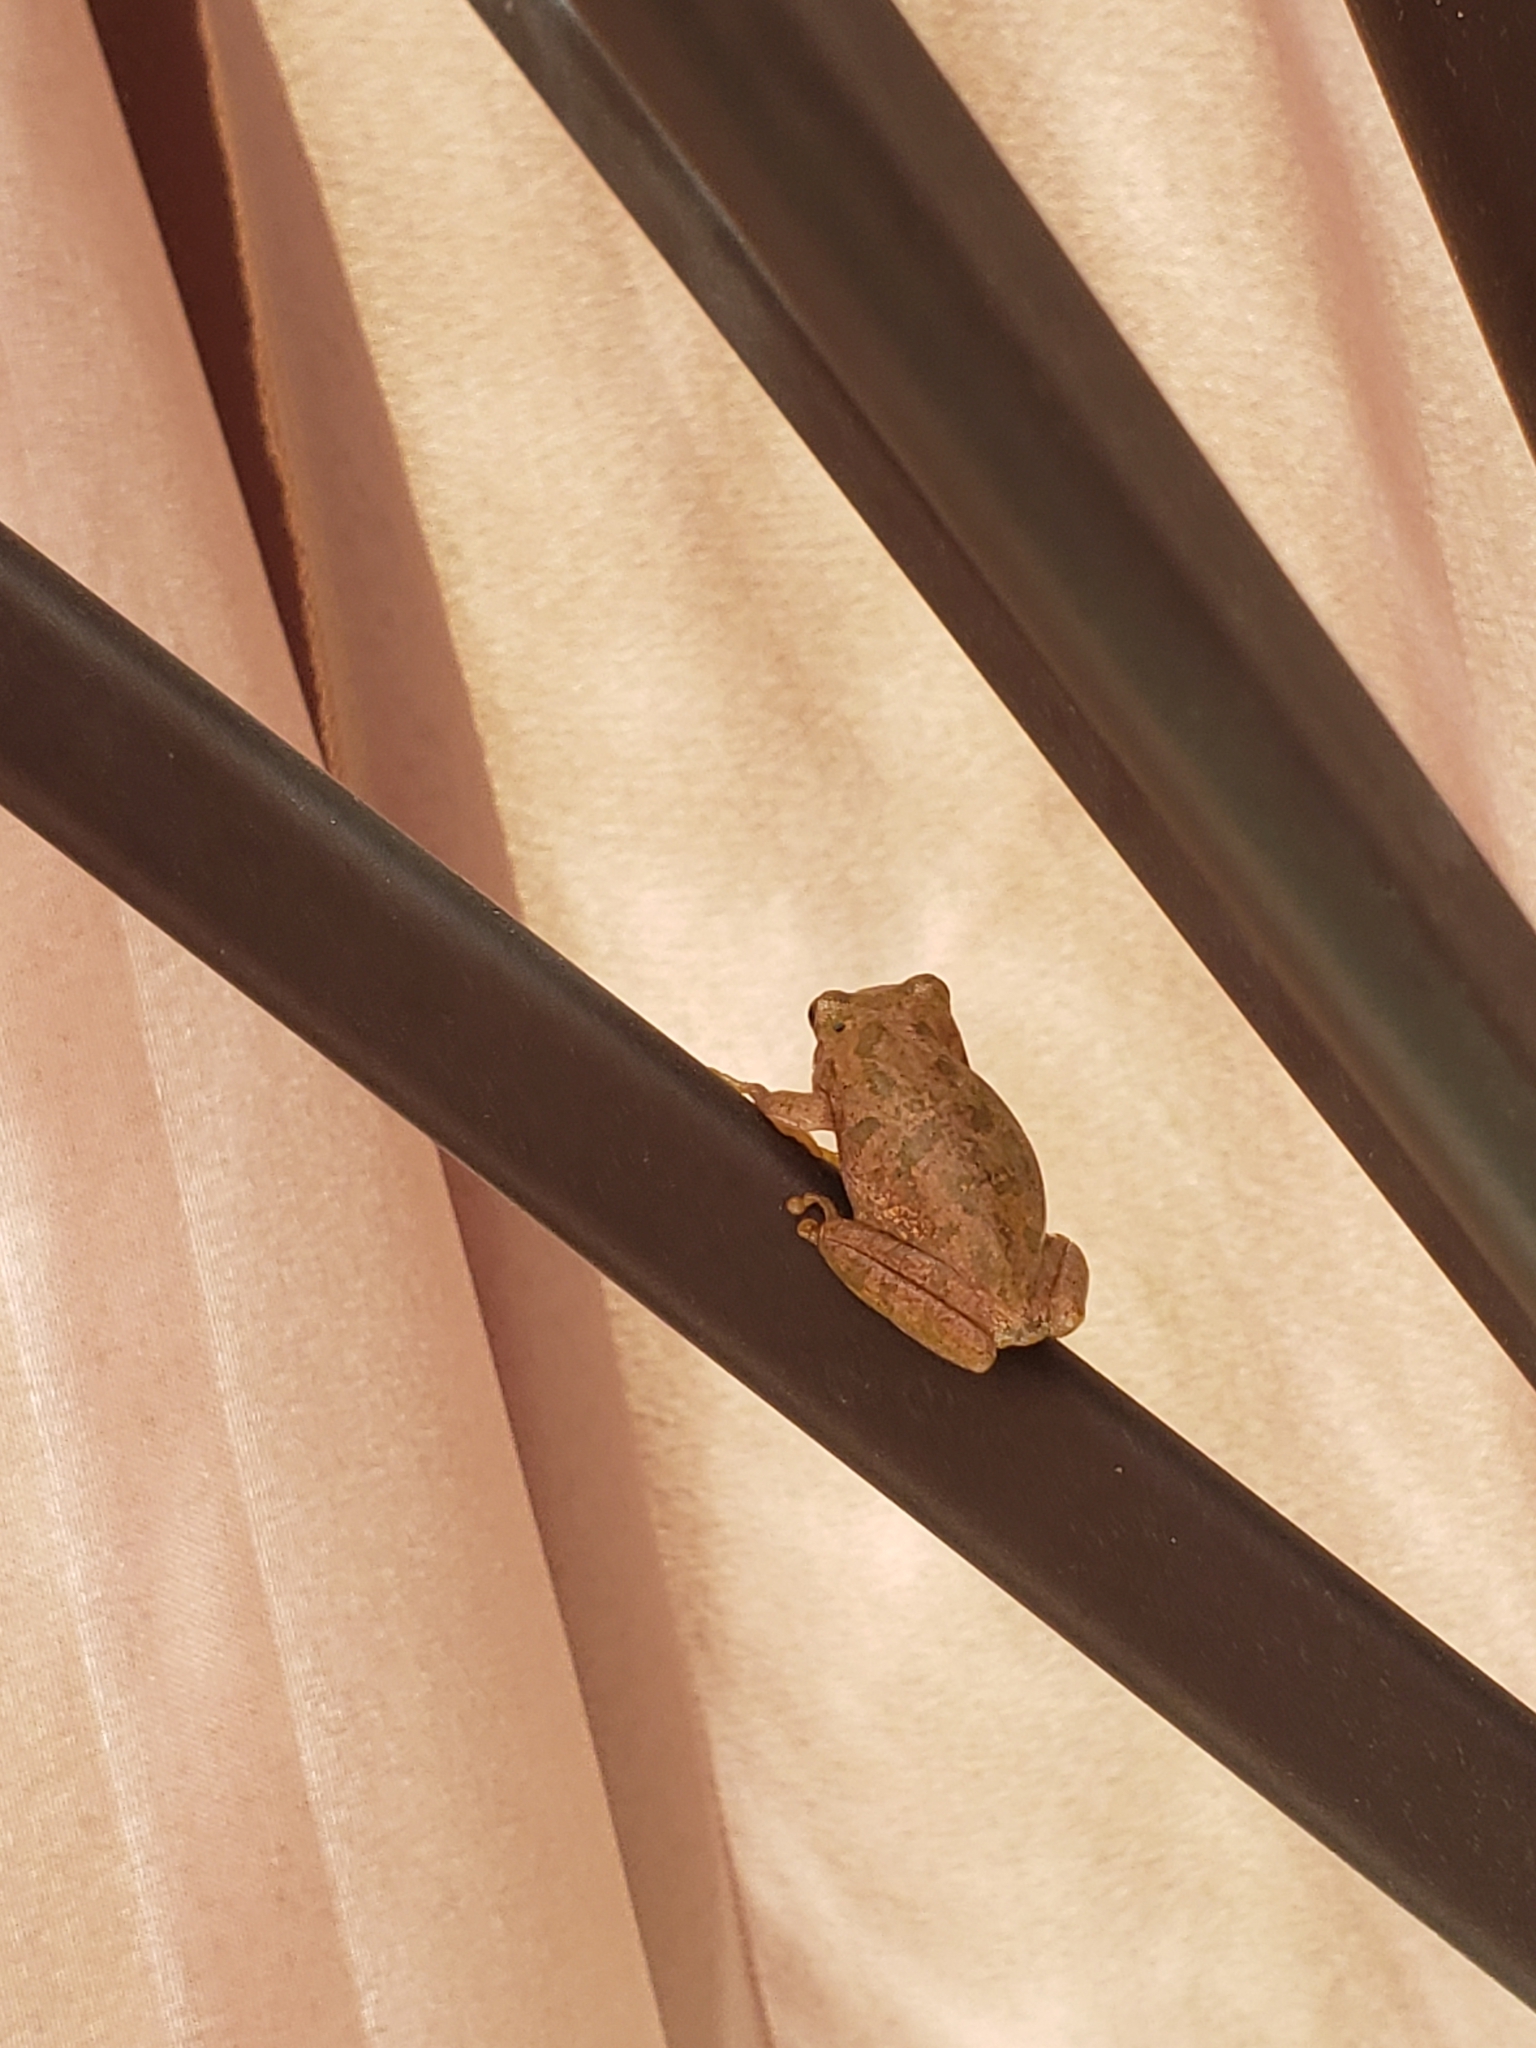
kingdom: Animalia
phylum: Chordata
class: Amphibia
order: Anura
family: Hylidae
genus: Dryophytes
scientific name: Dryophytes squirellus
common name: Squirrel treefrog
